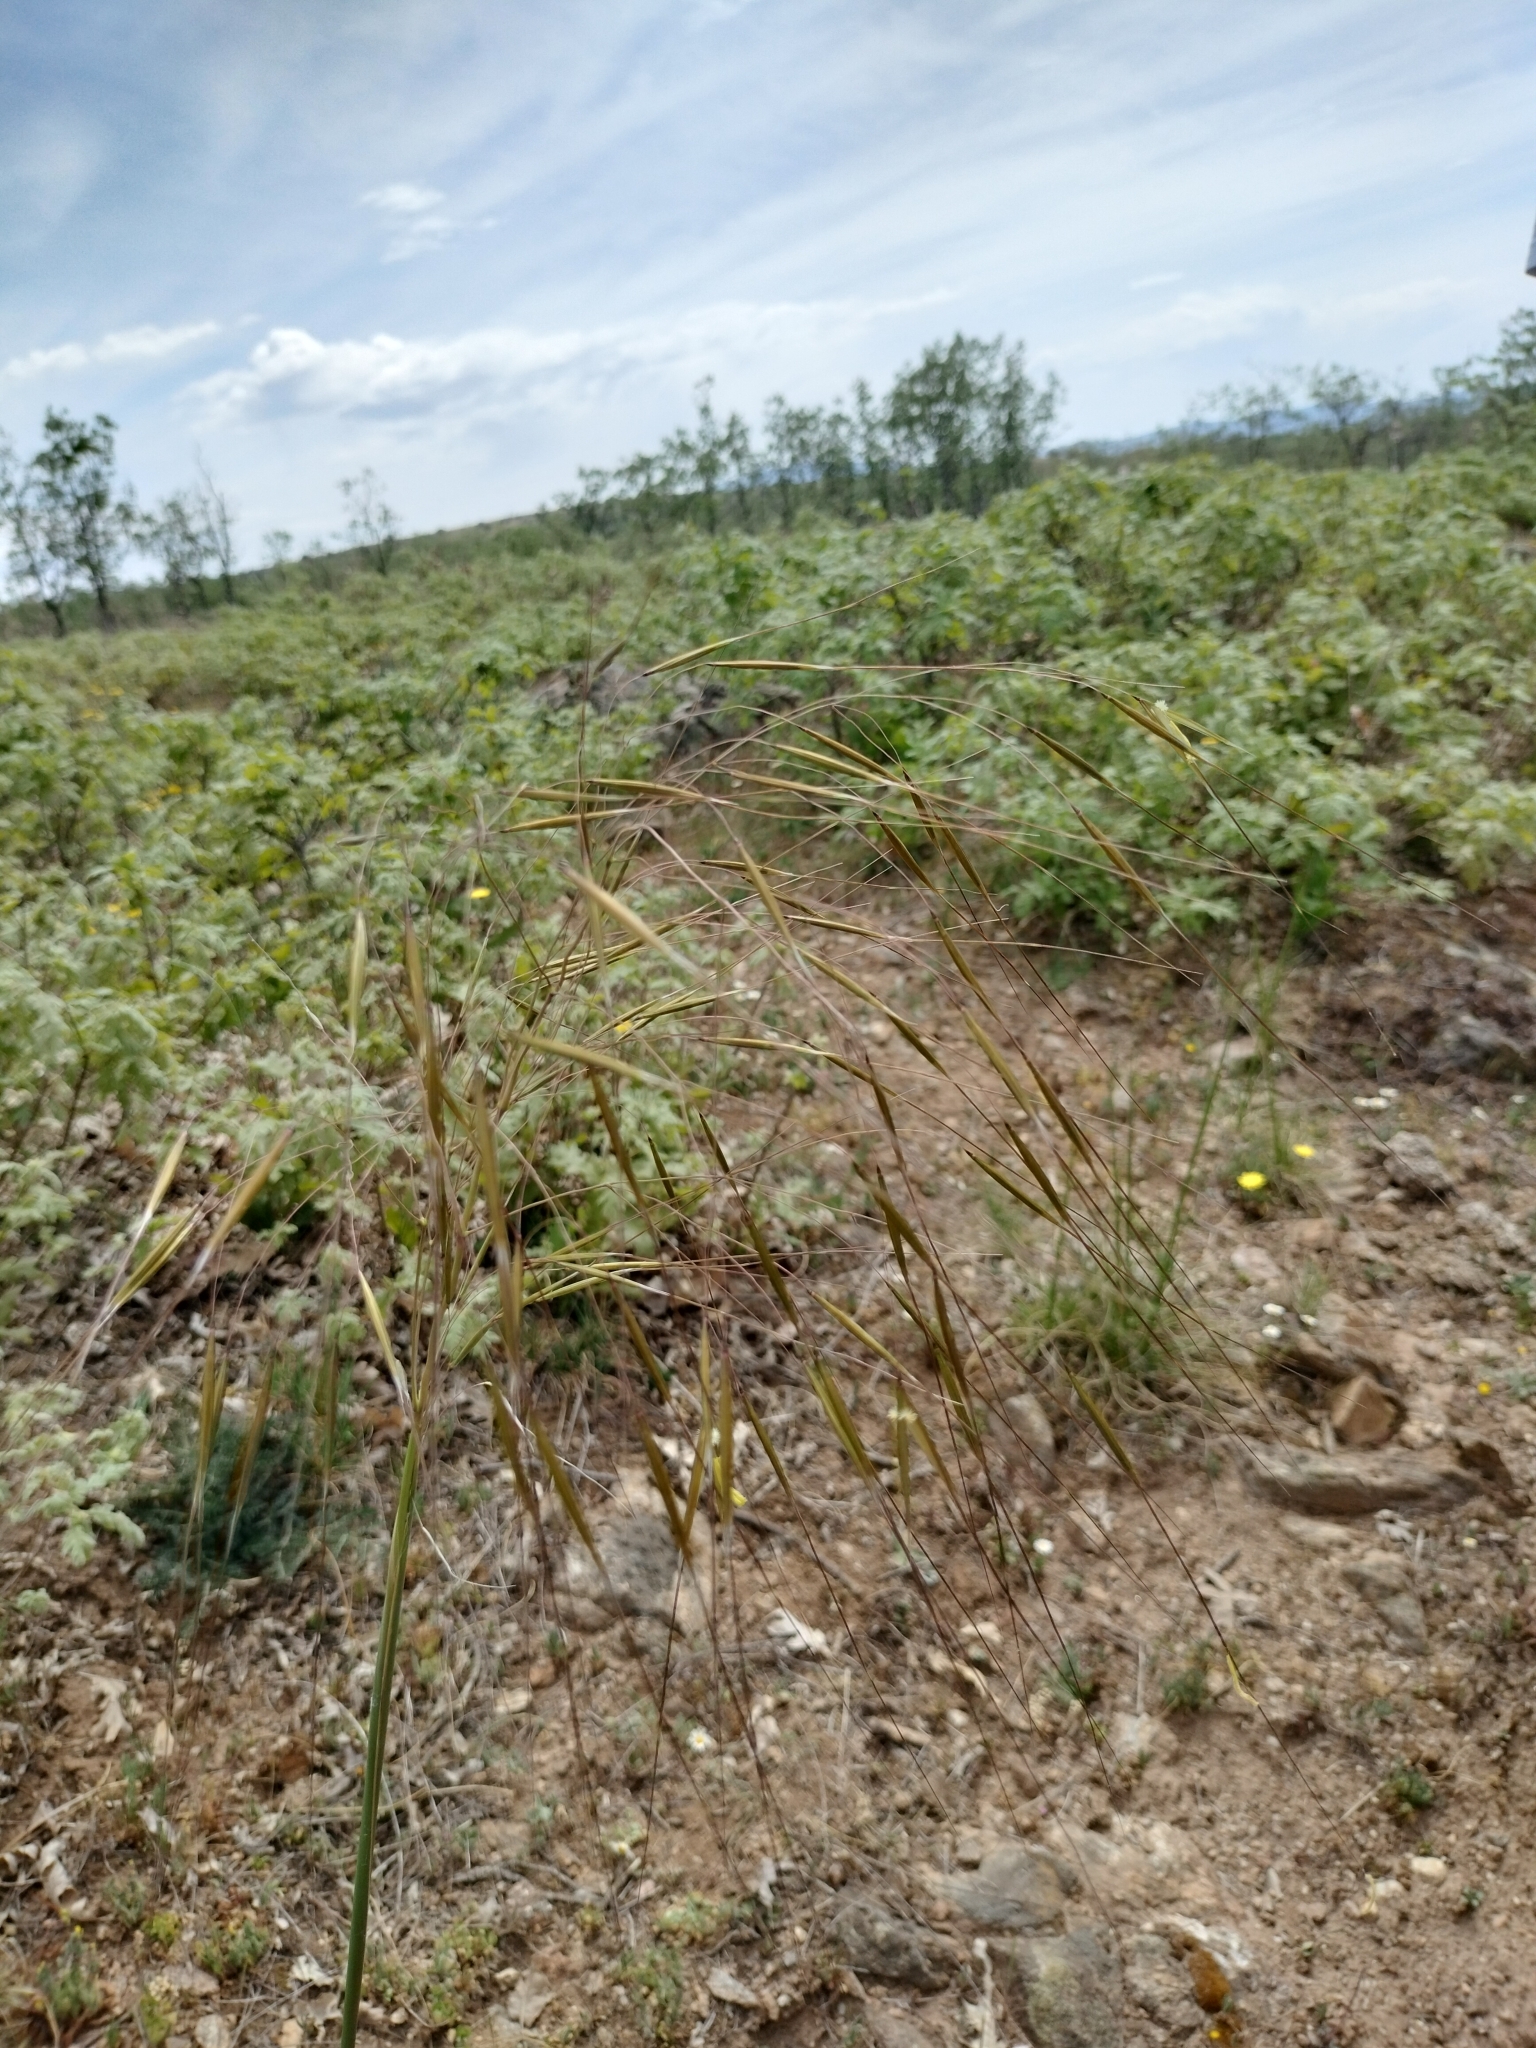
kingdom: Plantae
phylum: Tracheophyta
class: Liliopsida
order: Poales
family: Poaceae
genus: Celtica
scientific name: Celtica gigantea
